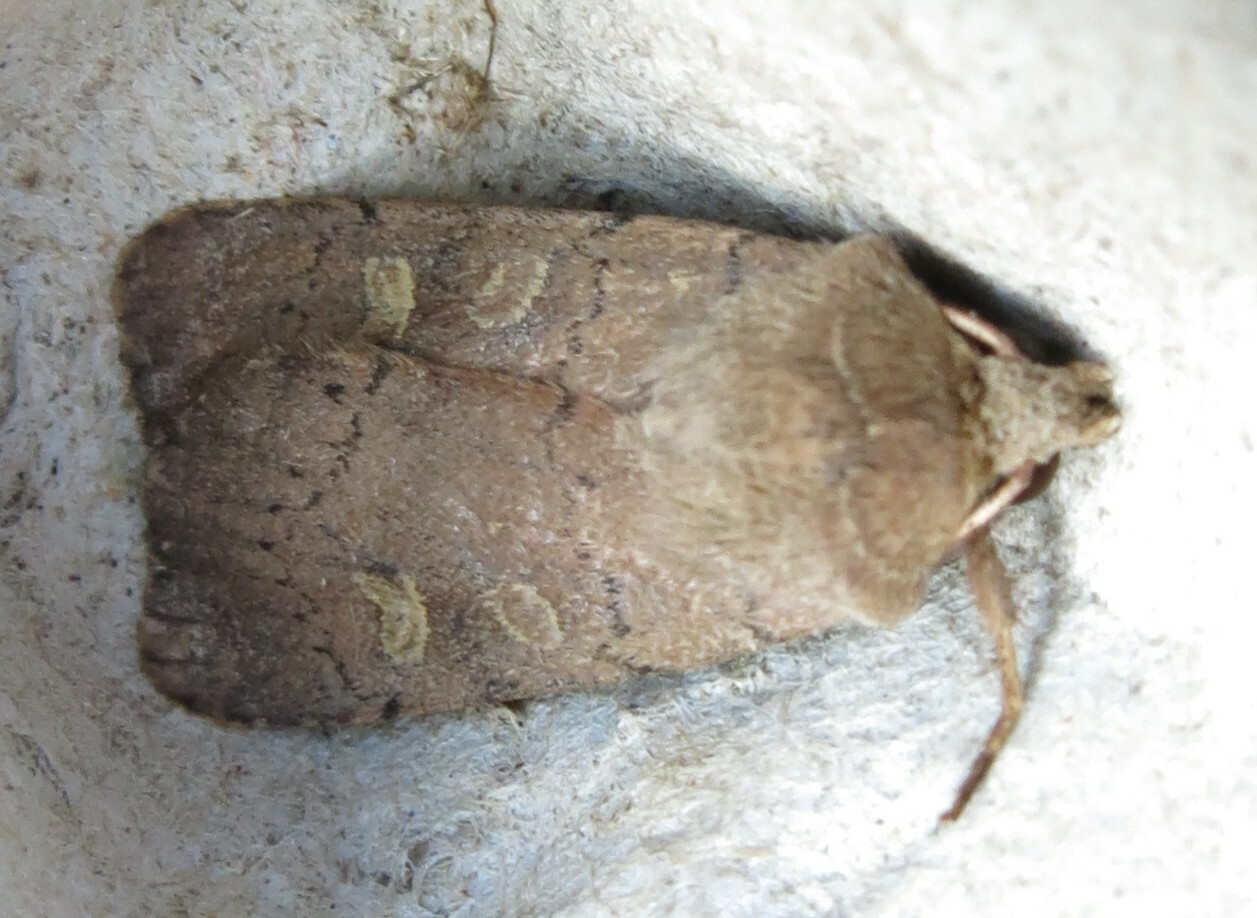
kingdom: Animalia
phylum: Arthropoda
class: Insecta
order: Lepidoptera
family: Noctuidae
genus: Xestia
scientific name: Xestia xanthographa
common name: Square-spot rustic
